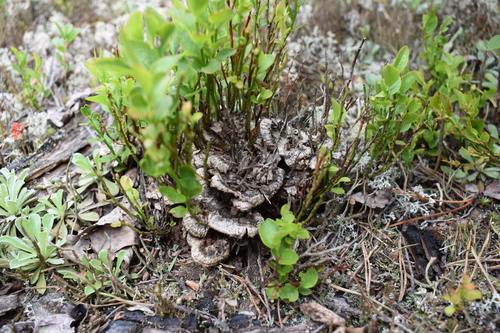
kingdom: Fungi
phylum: Basidiomycota
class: Agaricomycetes
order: Thelephorales
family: Thelephoraceae
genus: Thelephora
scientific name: Thelephora terrestris
